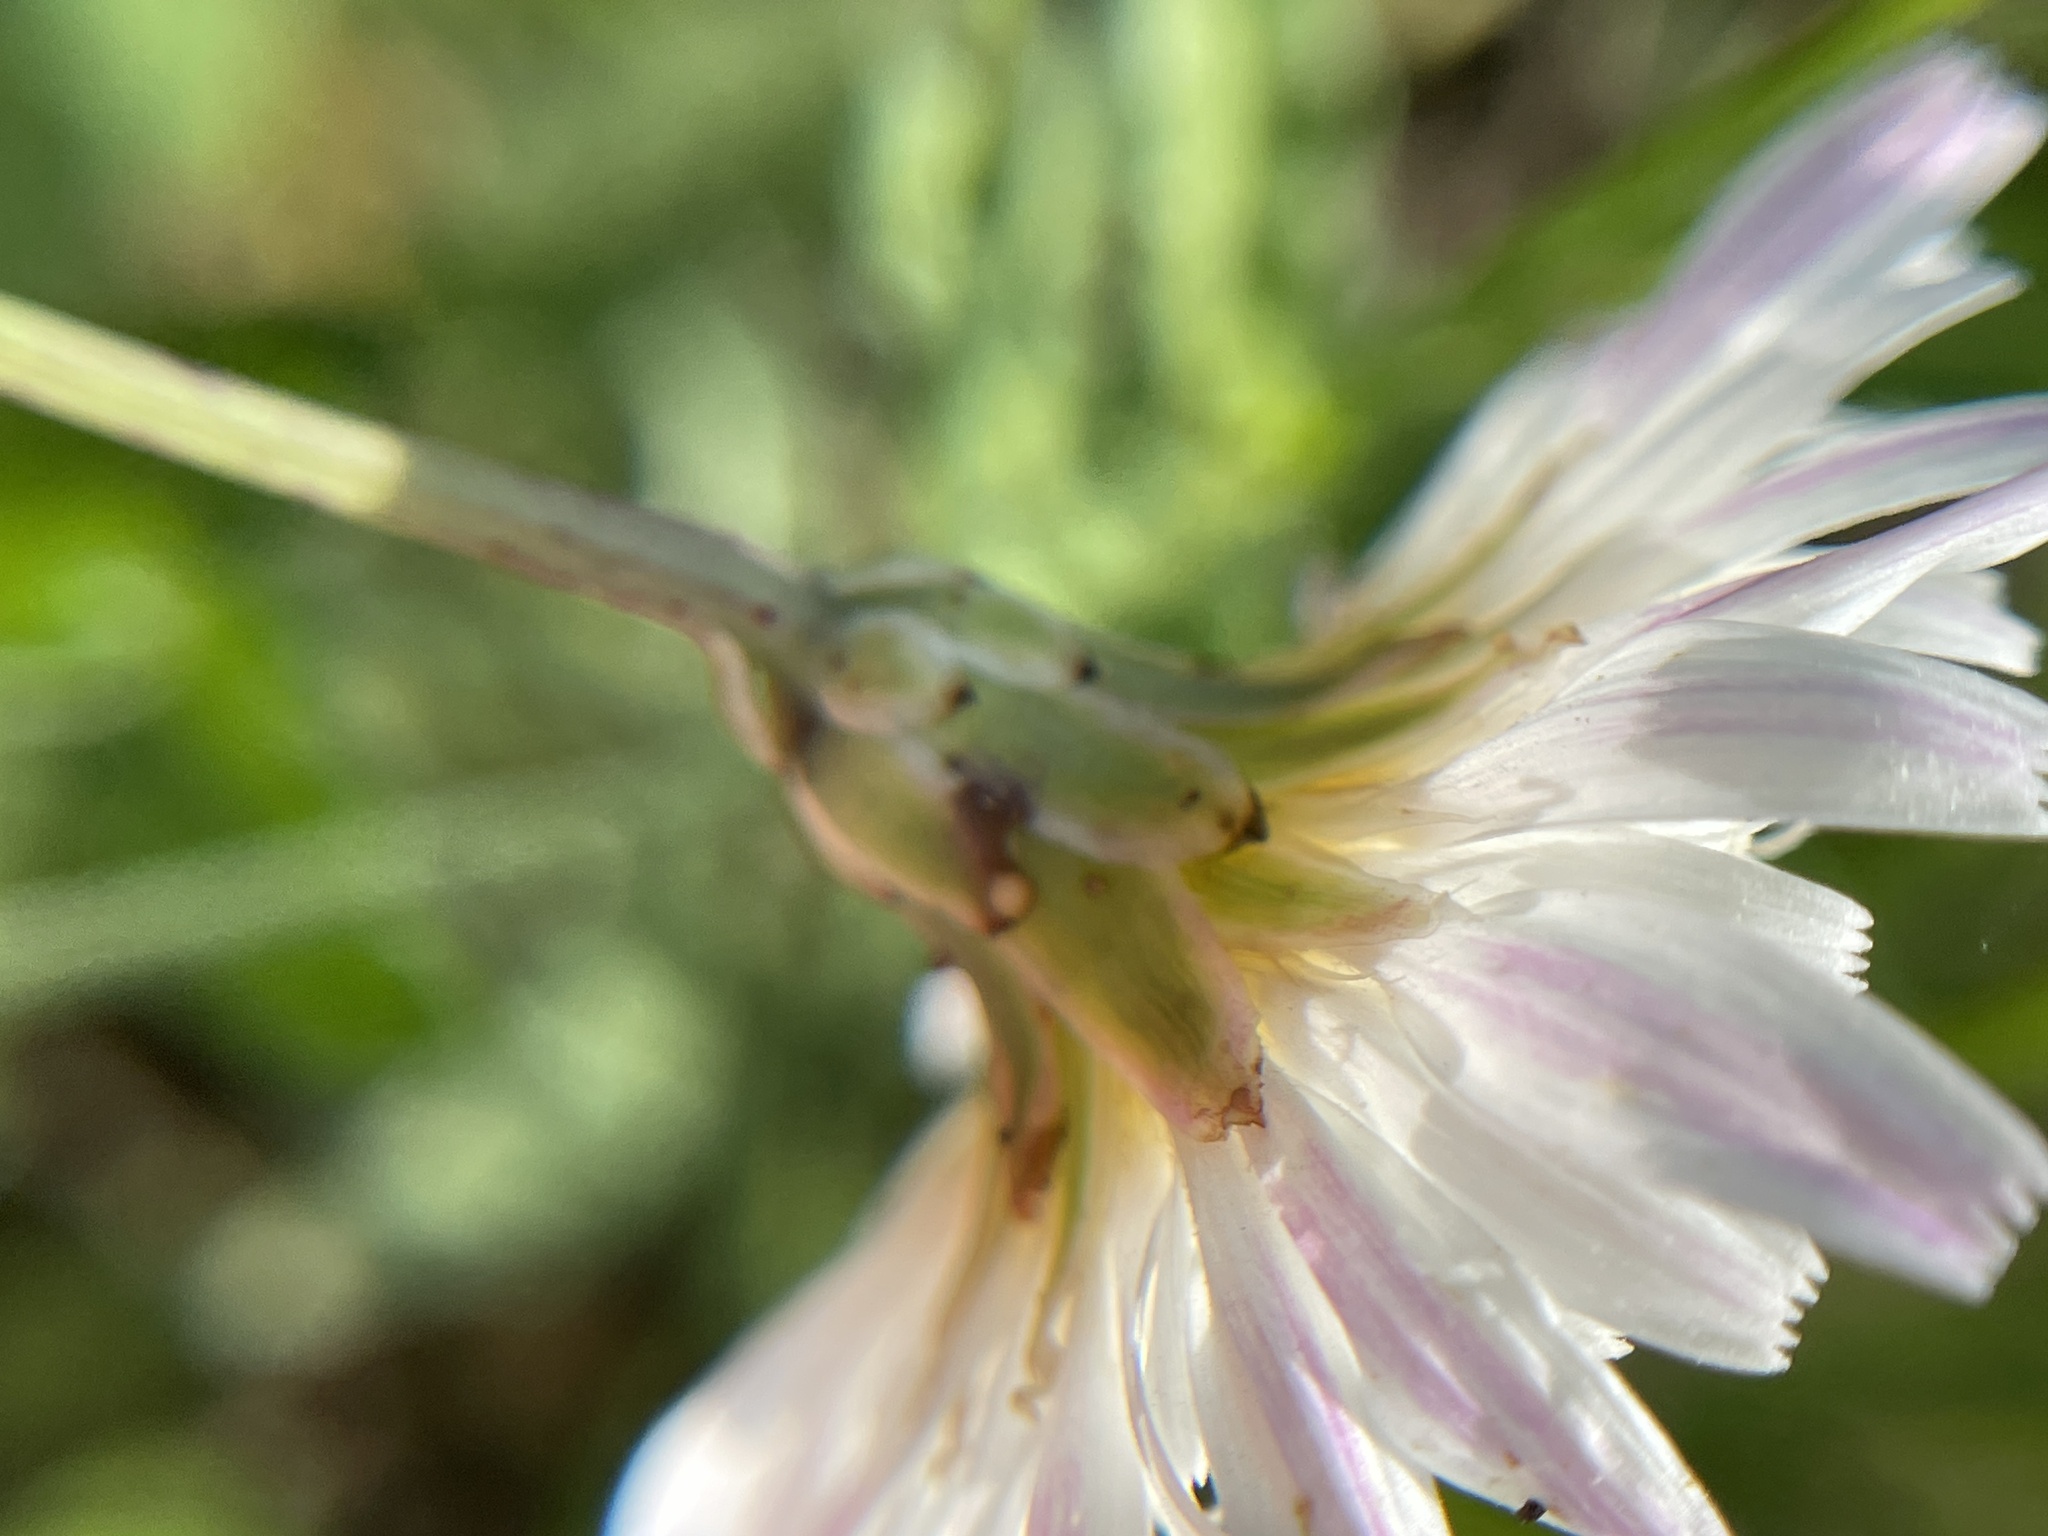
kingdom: Plantae
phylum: Tracheophyta
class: Magnoliopsida
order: Asterales
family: Asteraceae
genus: Pinaropappus
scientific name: Pinaropappus roseus
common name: Rock-lettuce
